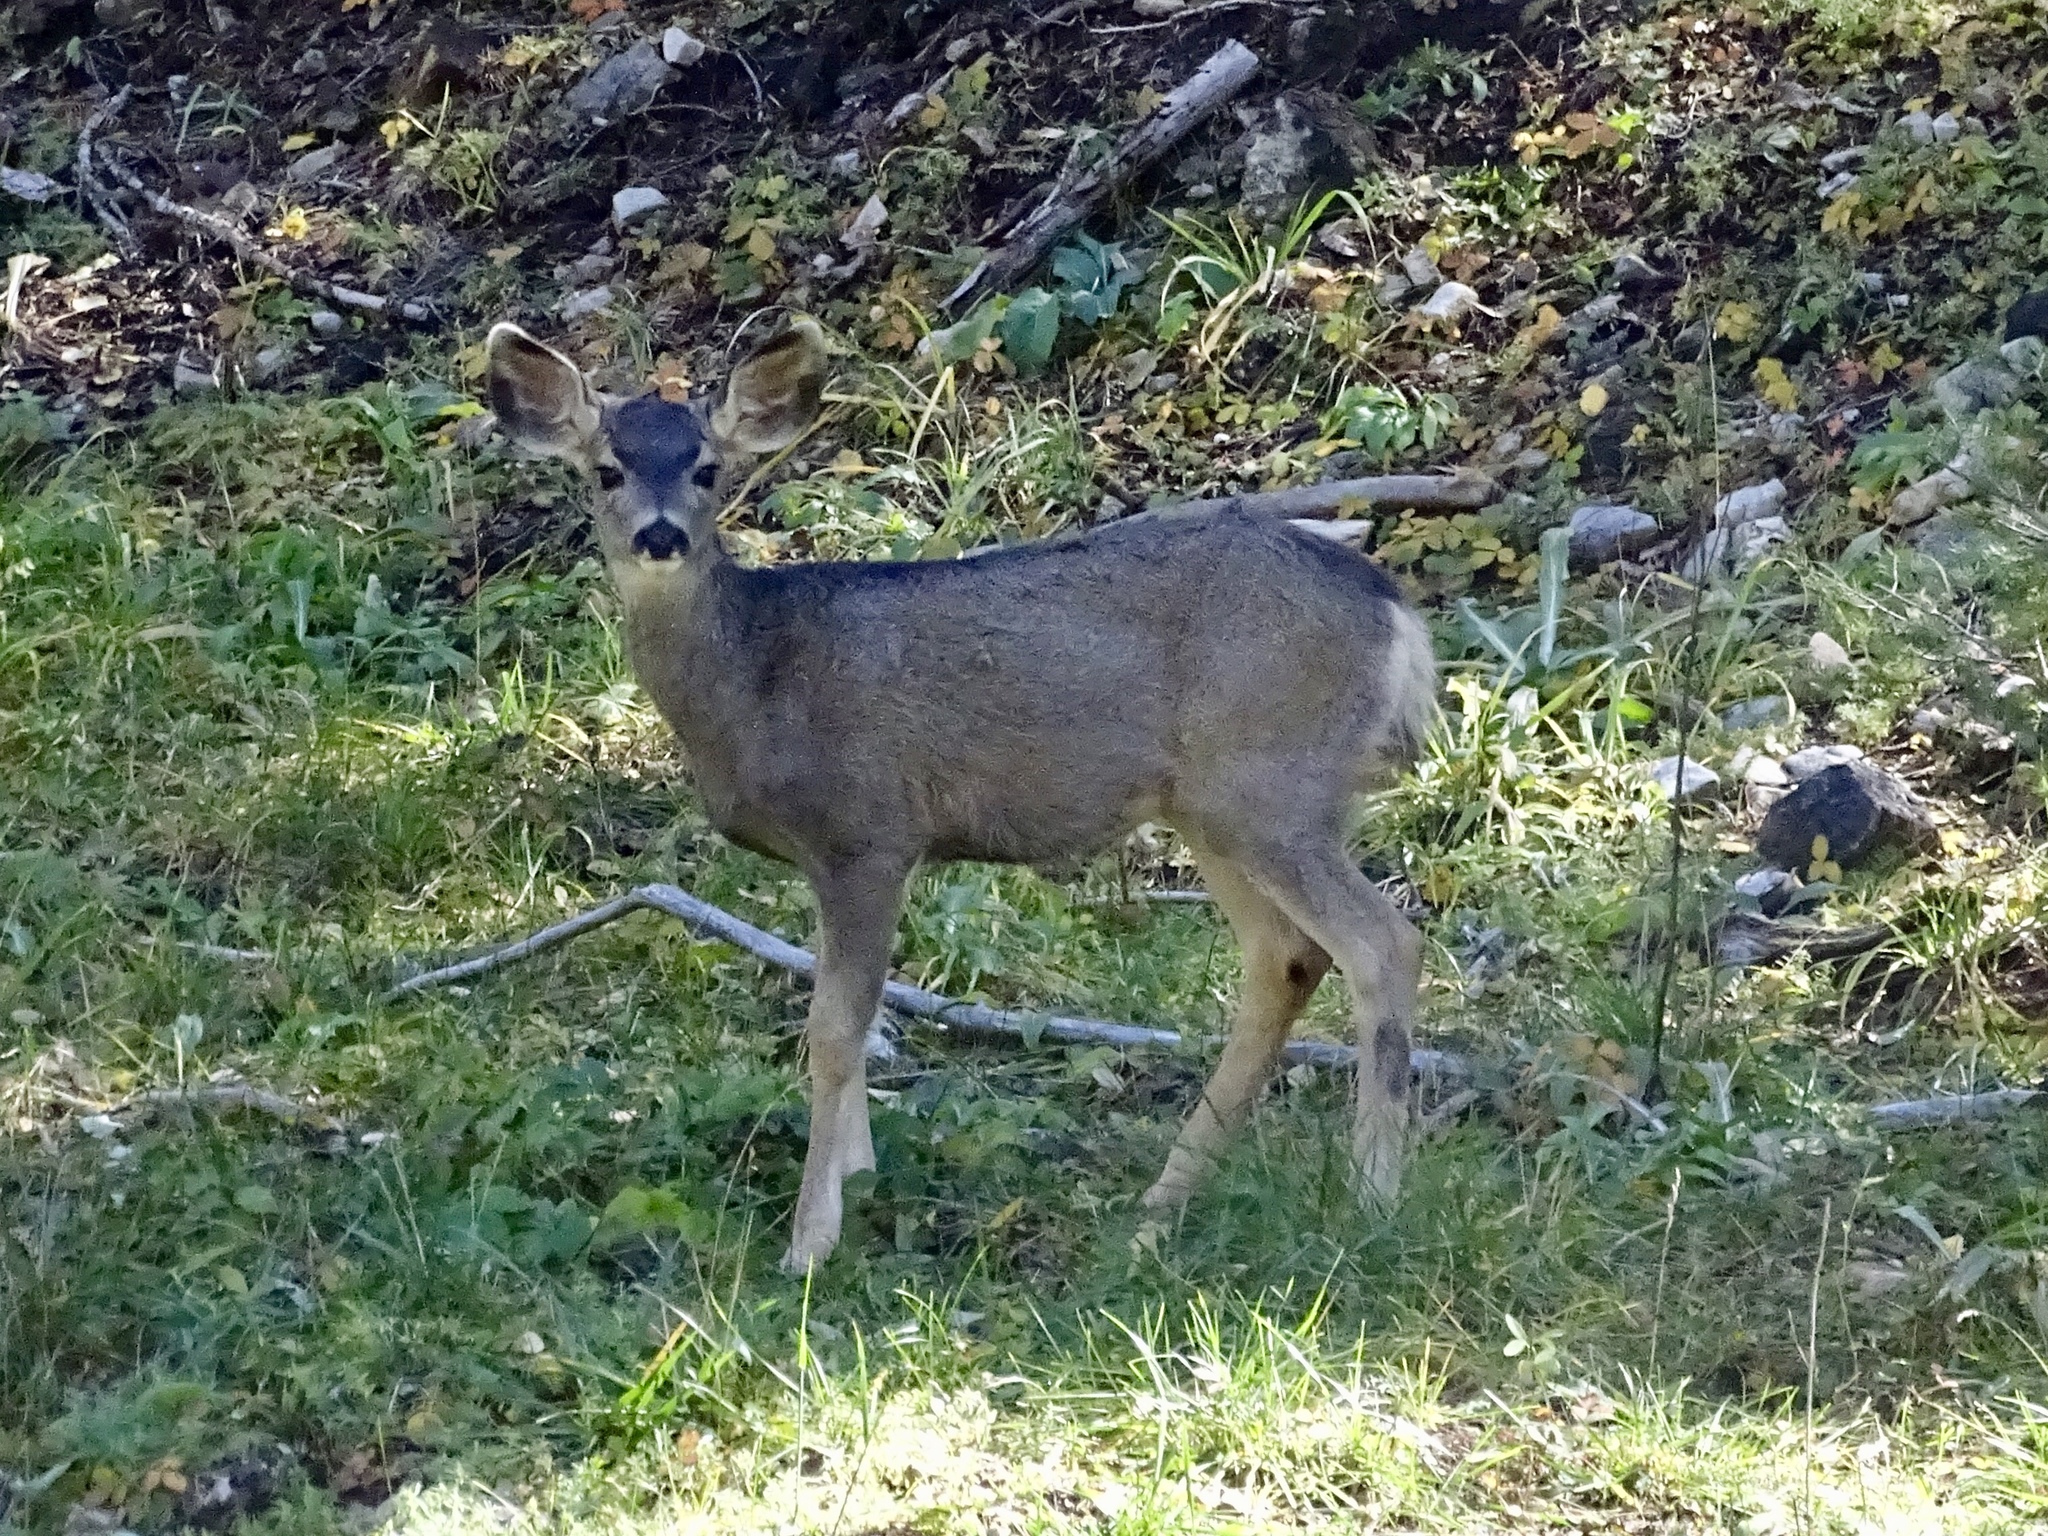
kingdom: Animalia
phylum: Chordata
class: Mammalia
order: Artiodactyla
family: Cervidae
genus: Odocoileus
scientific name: Odocoileus hemionus
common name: Mule deer
